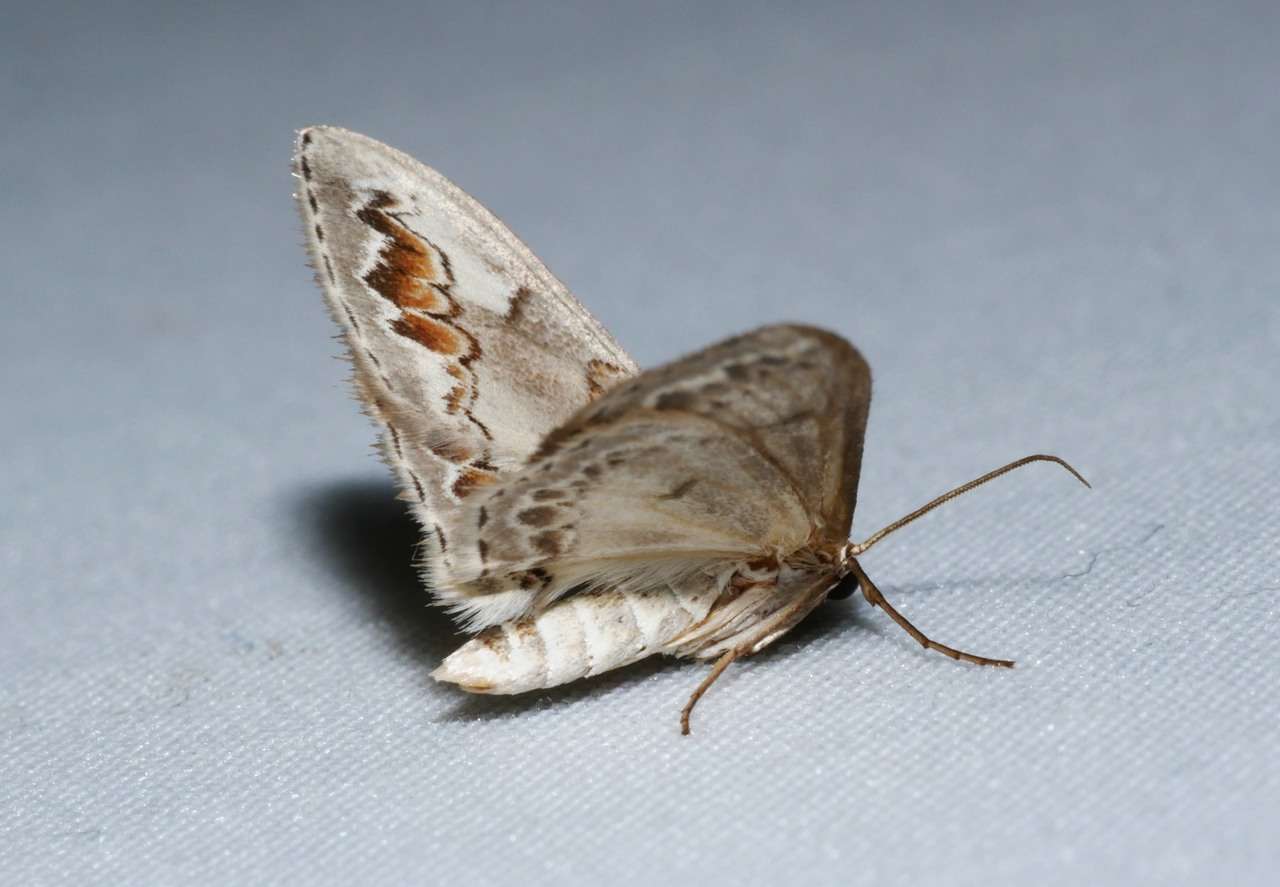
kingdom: Animalia
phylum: Arthropoda
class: Insecta
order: Lepidoptera
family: Geometridae
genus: Dithalama
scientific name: Dithalama cosmospila
